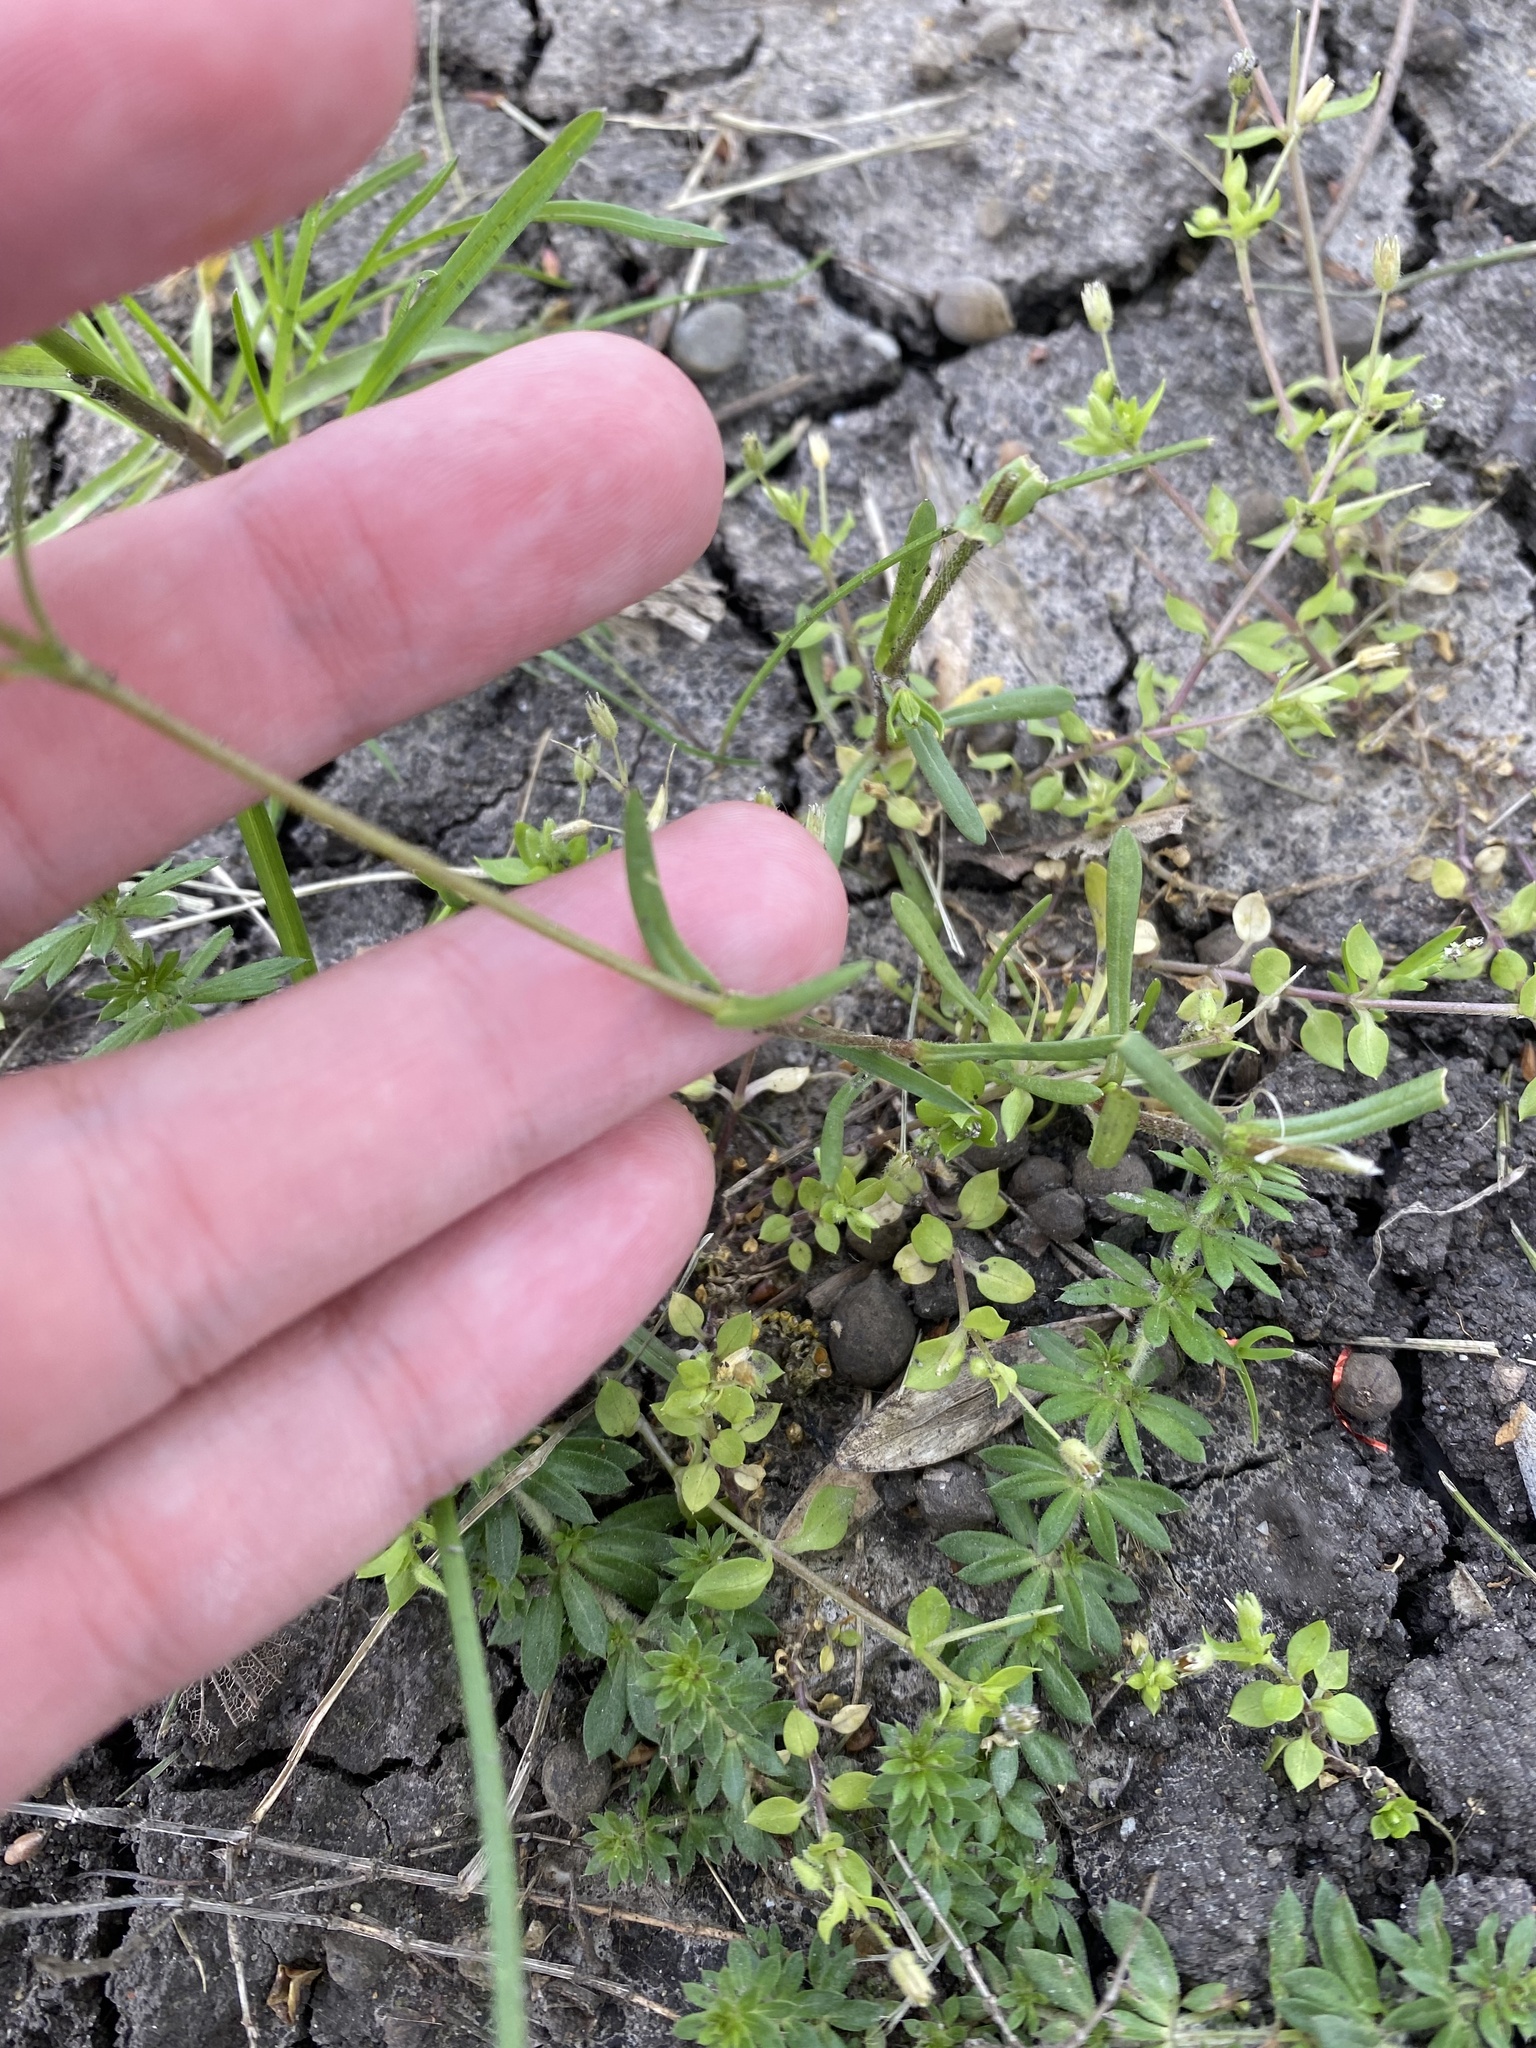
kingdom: Plantae
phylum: Tracheophyta
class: Magnoliopsida
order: Caryophyllales
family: Caryophyllaceae
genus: Dichodon
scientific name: Dichodon viscidum
